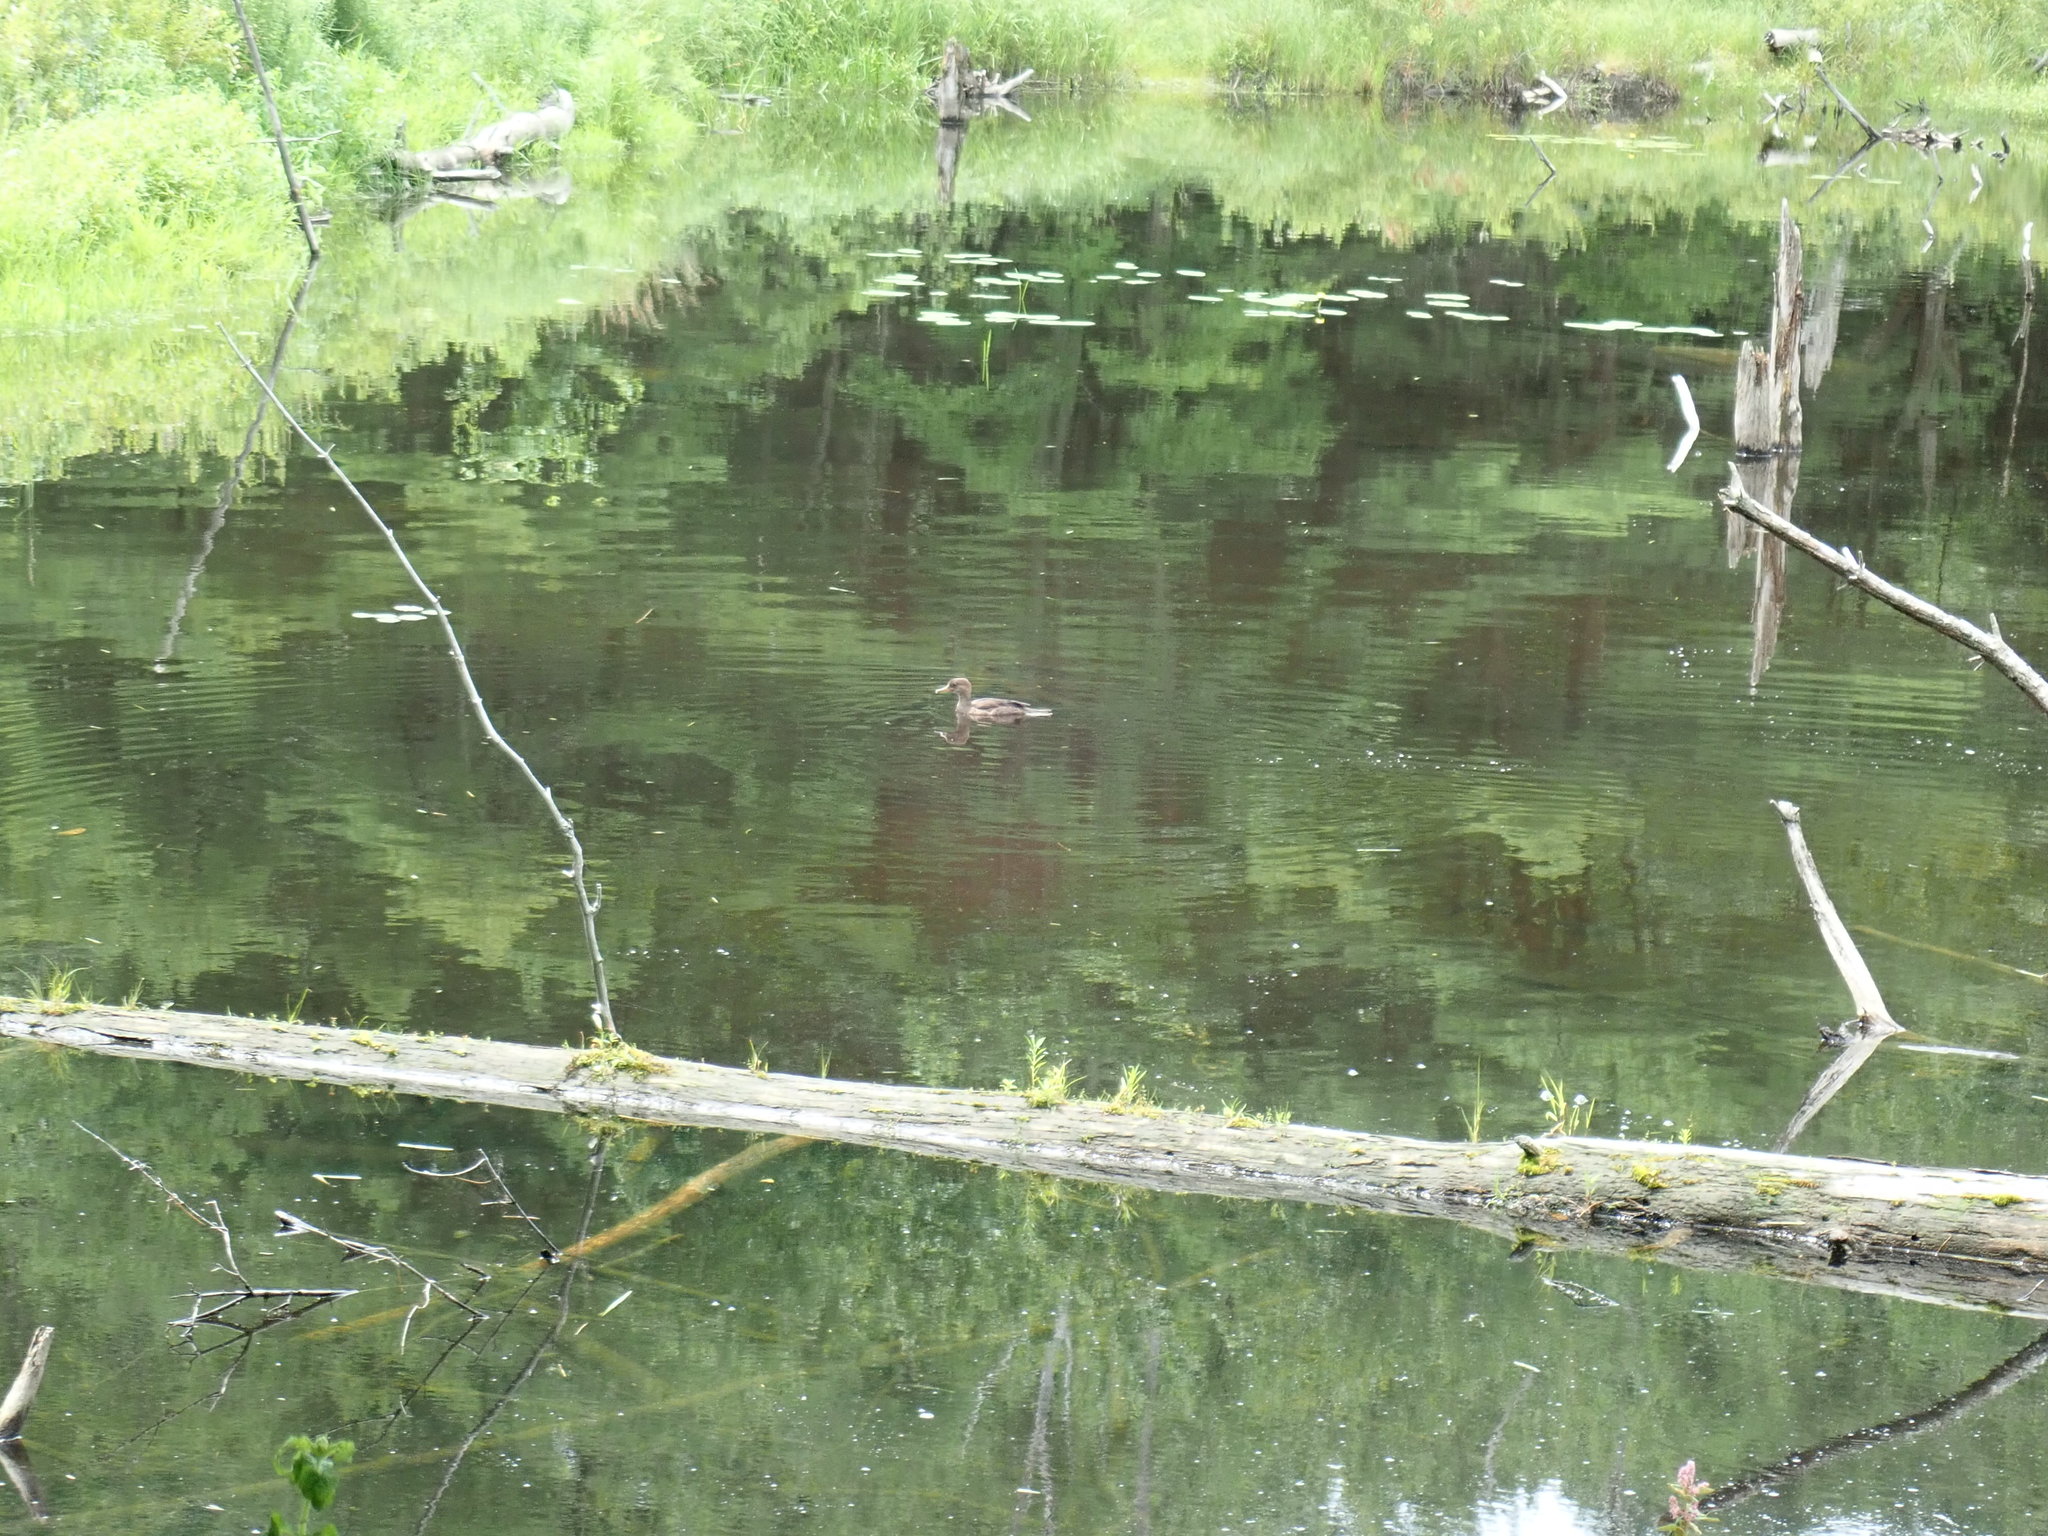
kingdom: Animalia
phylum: Chordata
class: Aves
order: Anseriformes
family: Anatidae
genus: Lophodytes
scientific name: Lophodytes cucullatus
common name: Hooded merganser
